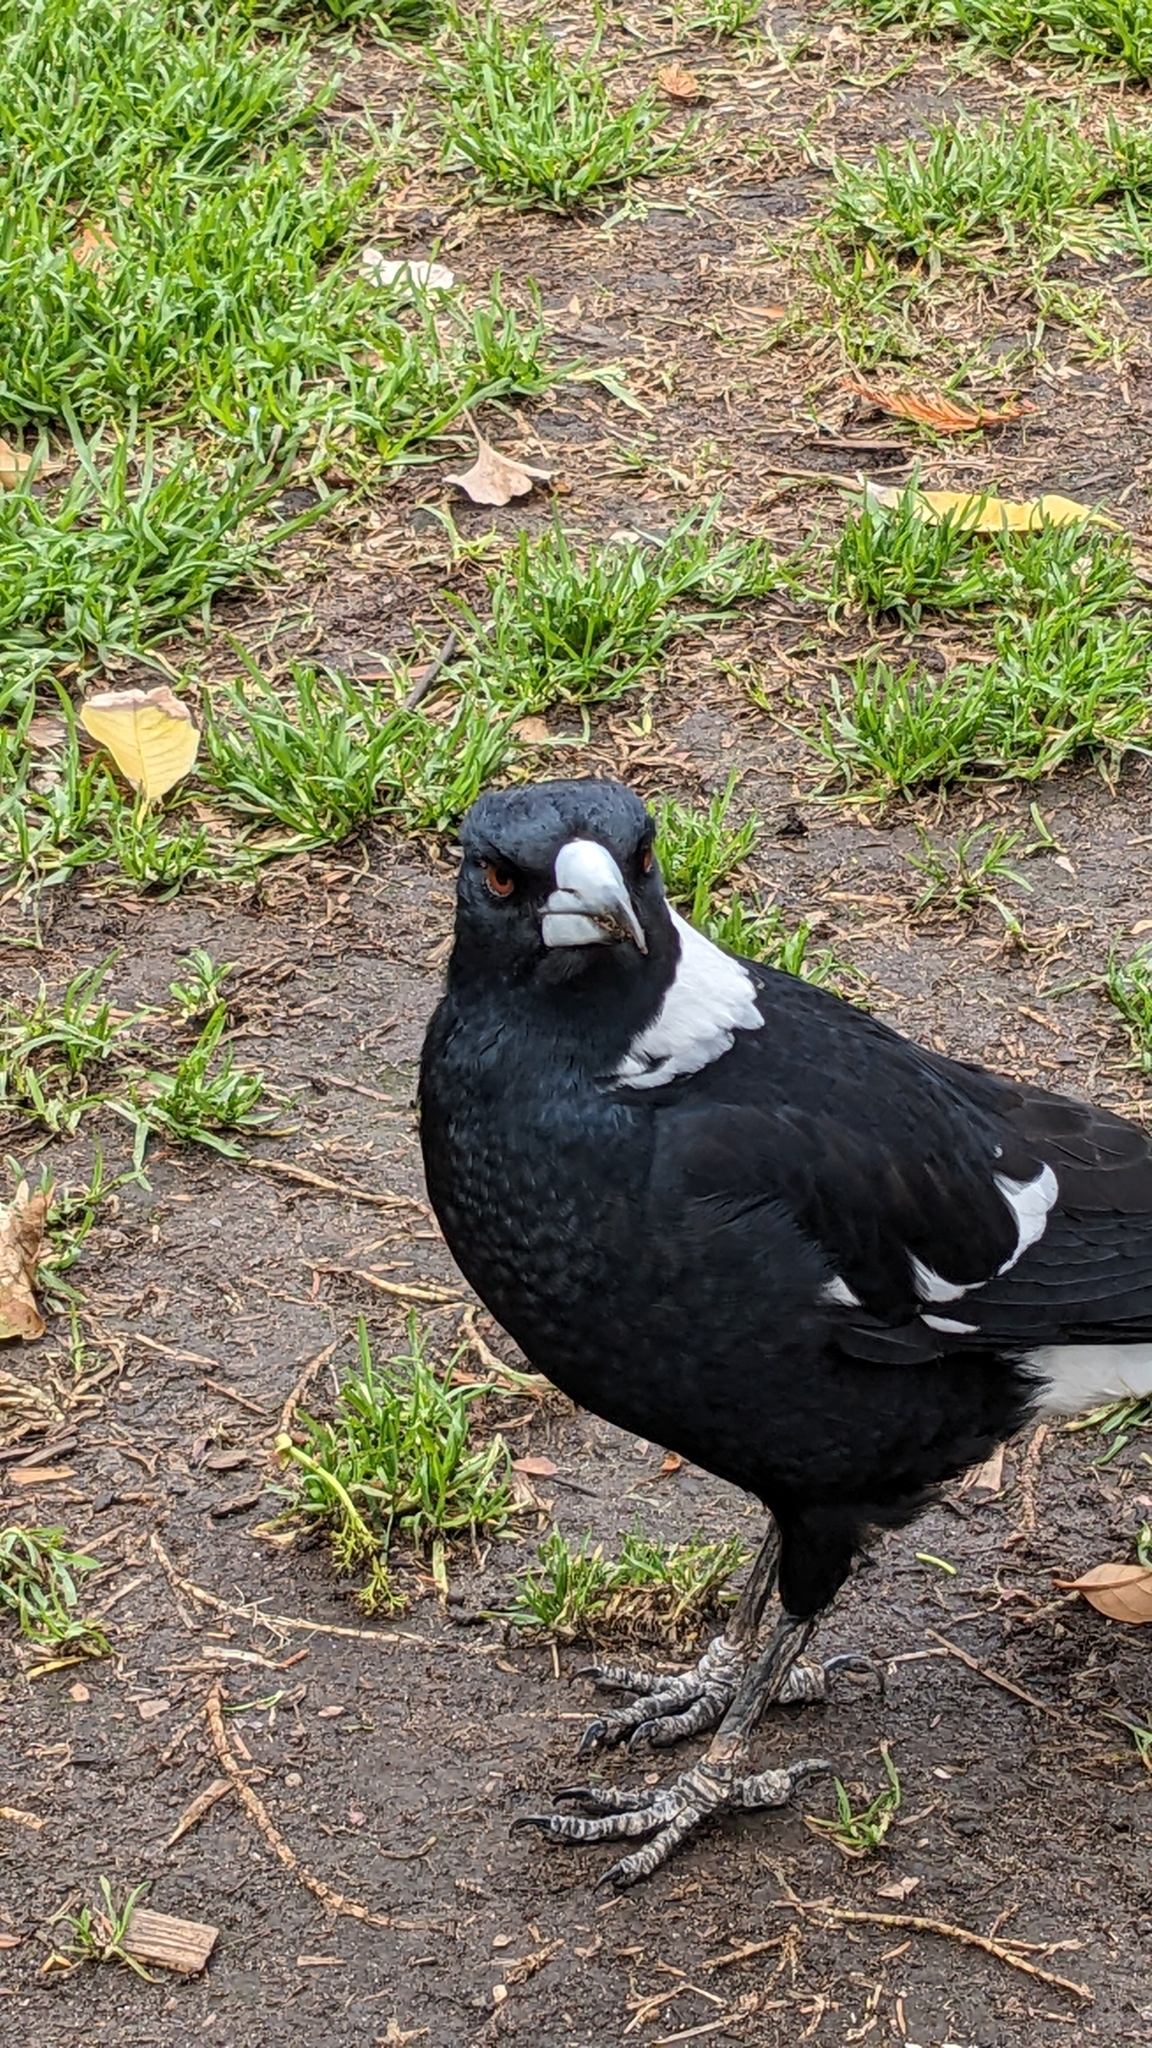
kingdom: Animalia
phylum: Chordata
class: Aves
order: Passeriformes
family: Cracticidae
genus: Gymnorhina
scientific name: Gymnorhina tibicen
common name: Australian magpie
